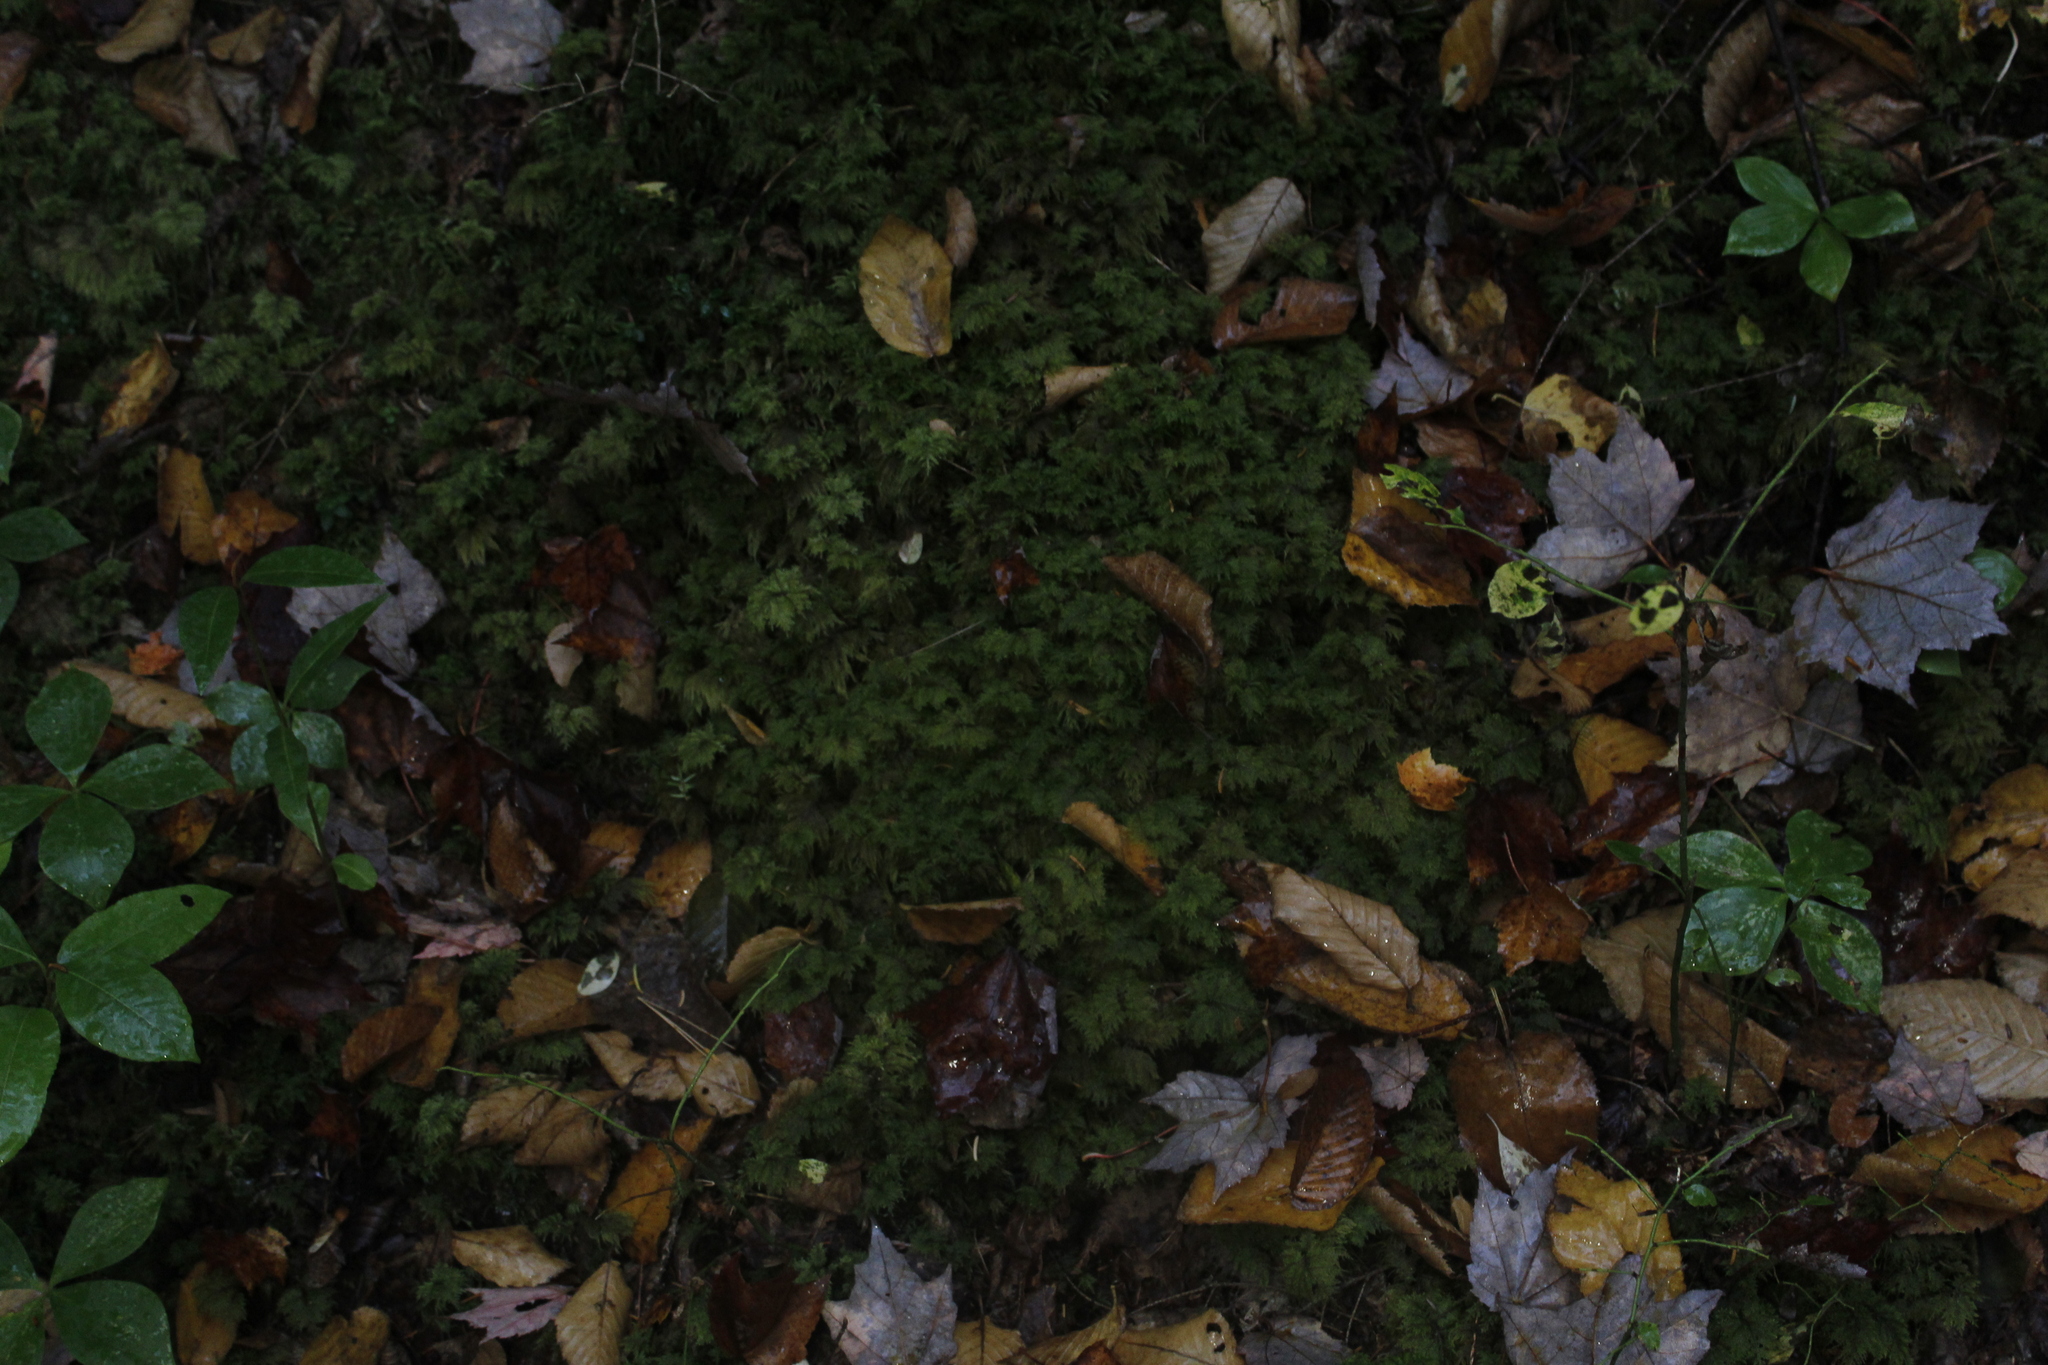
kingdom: Plantae
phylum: Bryophyta
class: Bryopsida
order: Hypnales
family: Hylocomiaceae
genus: Hylocomium
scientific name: Hylocomium splendens
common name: Stairstep moss
